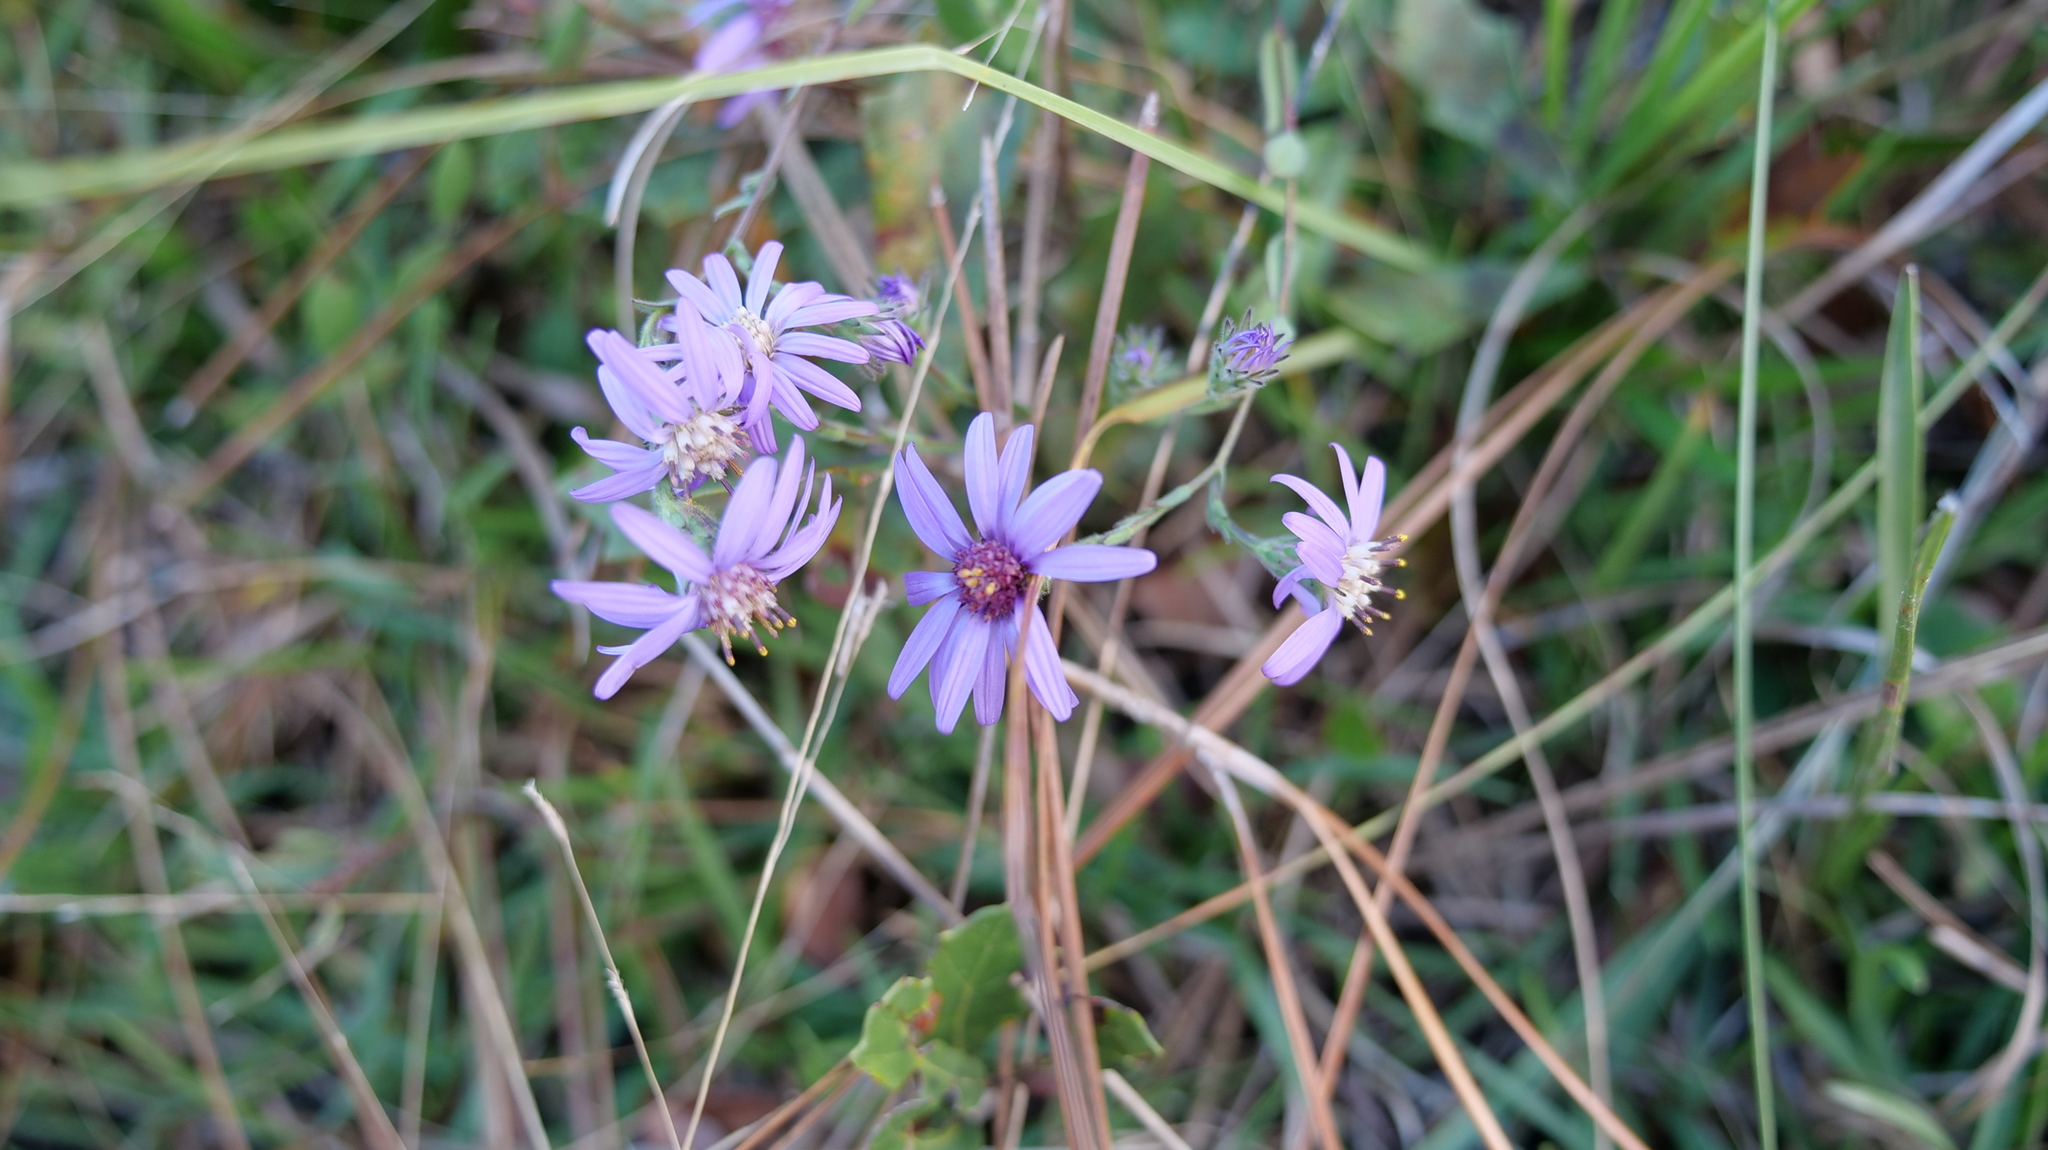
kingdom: Plantae
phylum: Tracheophyta
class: Magnoliopsida
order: Asterales
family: Asteraceae
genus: Symphyotrichum
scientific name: Symphyotrichum concolor
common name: Eastern silver aster
